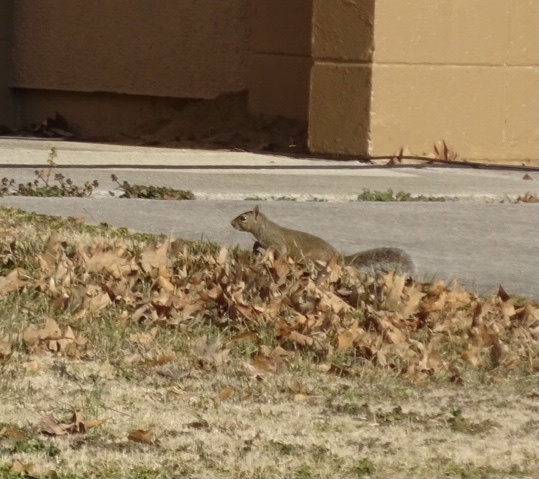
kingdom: Animalia
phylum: Chordata
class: Mammalia
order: Rodentia
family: Sciuridae
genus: Sciurus
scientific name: Sciurus carolinensis
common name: Eastern gray squirrel
